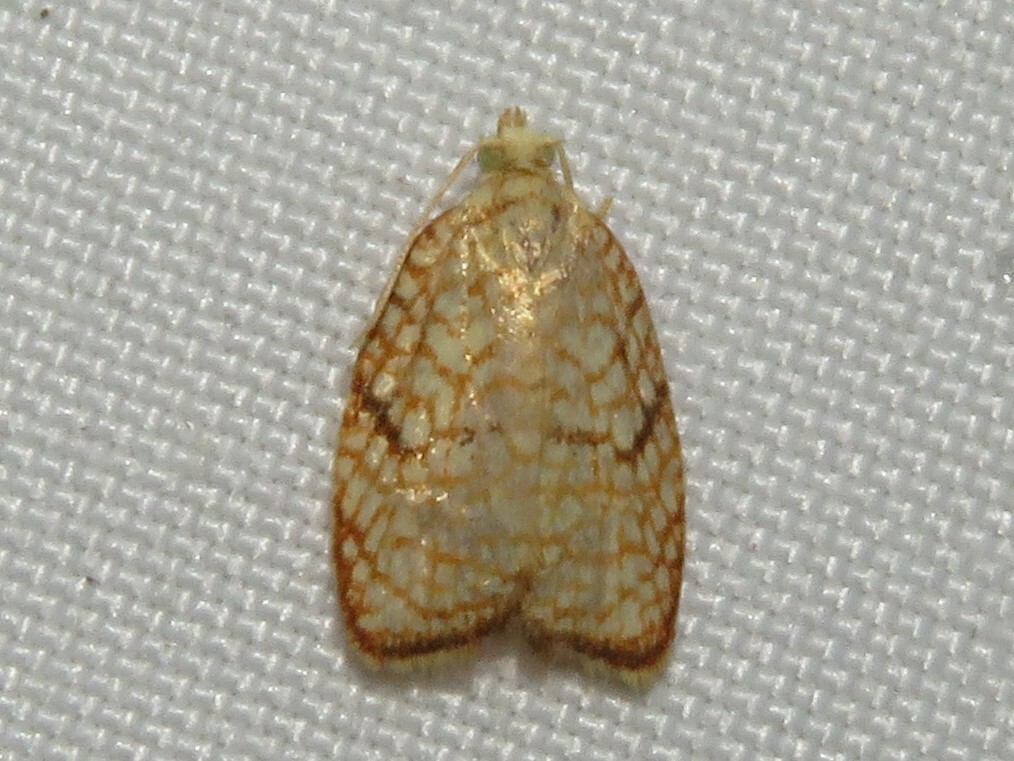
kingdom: Animalia
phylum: Arthropoda
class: Insecta
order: Lepidoptera
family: Tortricidae
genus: Acleris
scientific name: Acleris forsskaleana
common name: Maple button
